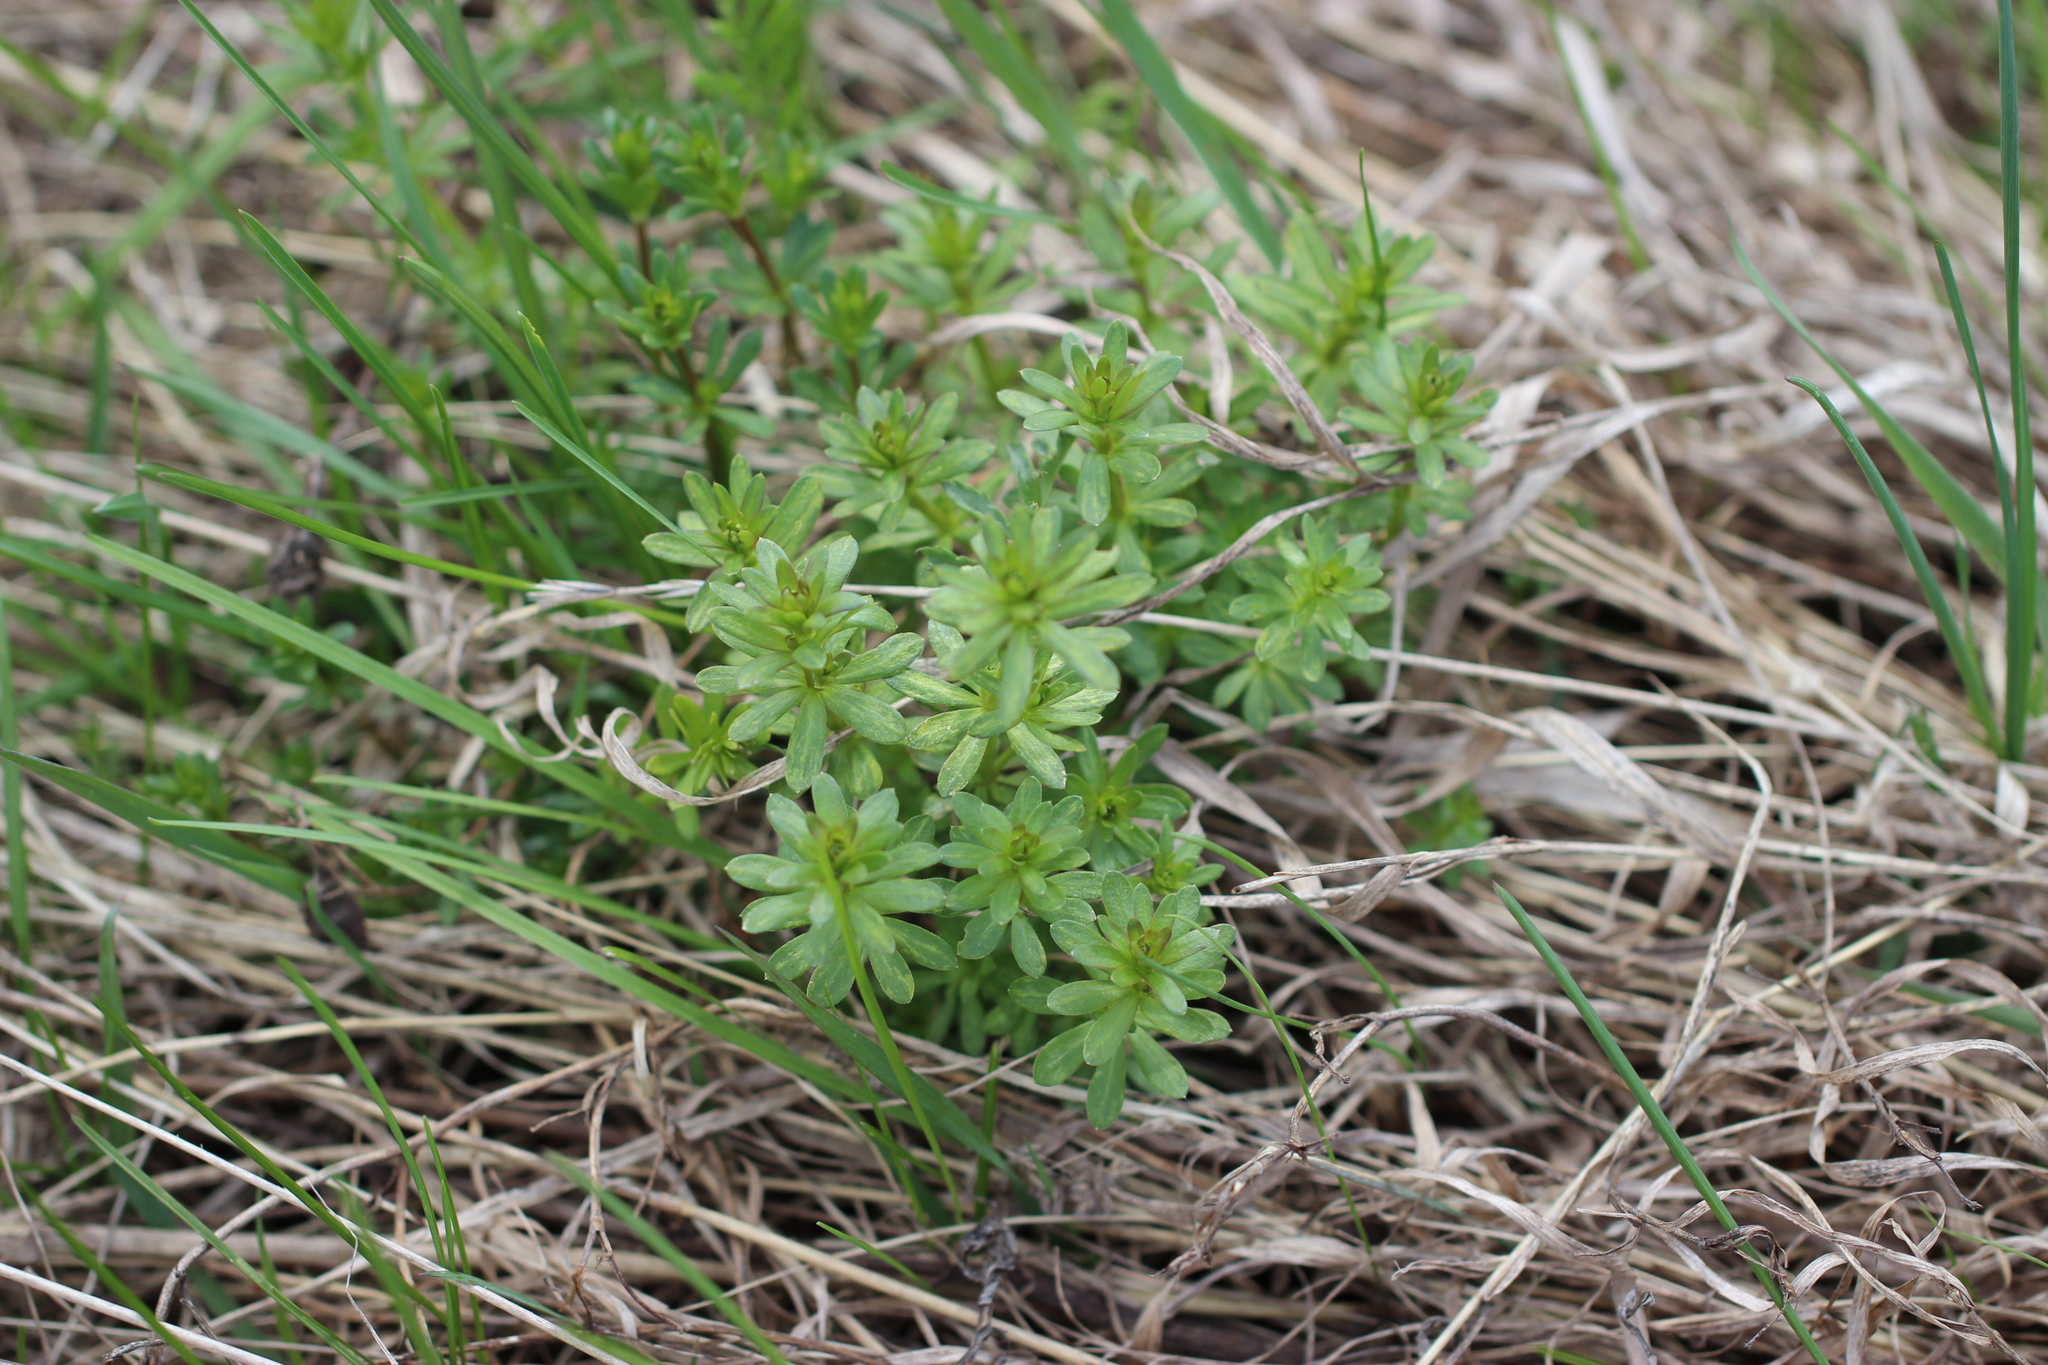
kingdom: Plantae
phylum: Tracheophyta
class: Magnoliopsida
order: Gentianales
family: Rubiaceae
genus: Galium
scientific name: Galium mollugo
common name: Hedge bedstraw
